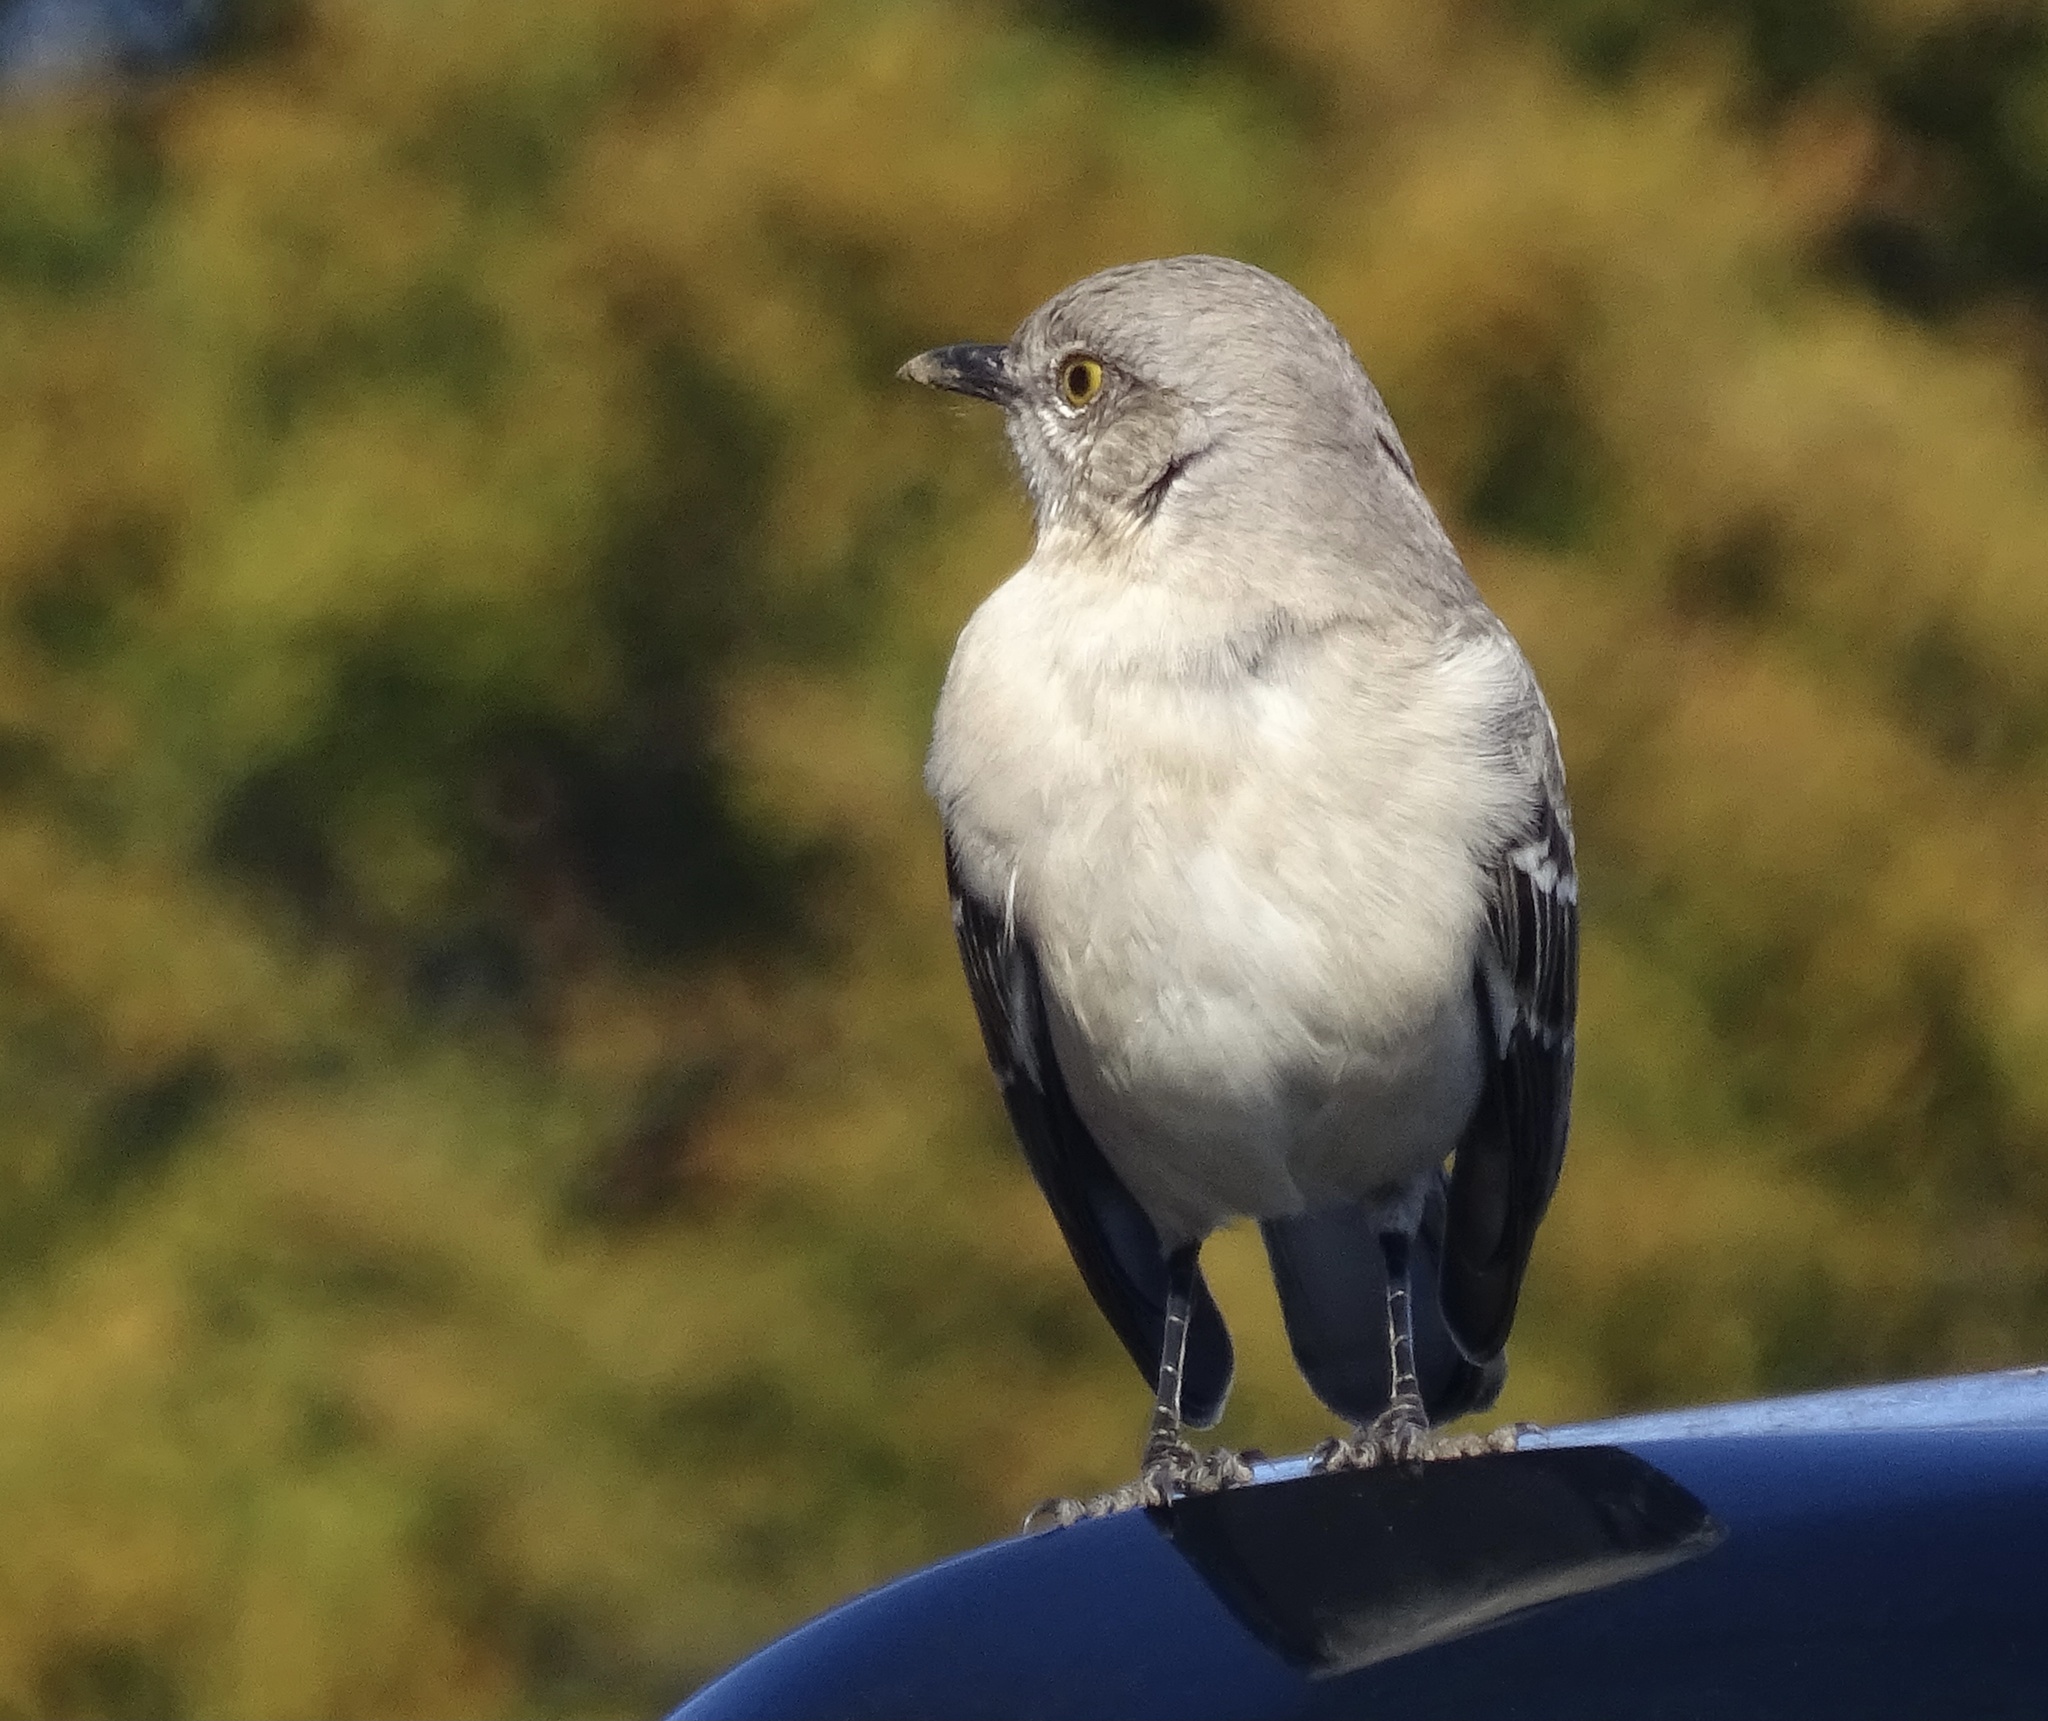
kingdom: Animalia
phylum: Chordata
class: Aves
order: Passeriformes
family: Mimidae
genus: Mimus
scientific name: Mimus polyglottos
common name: Northern mockingbird
